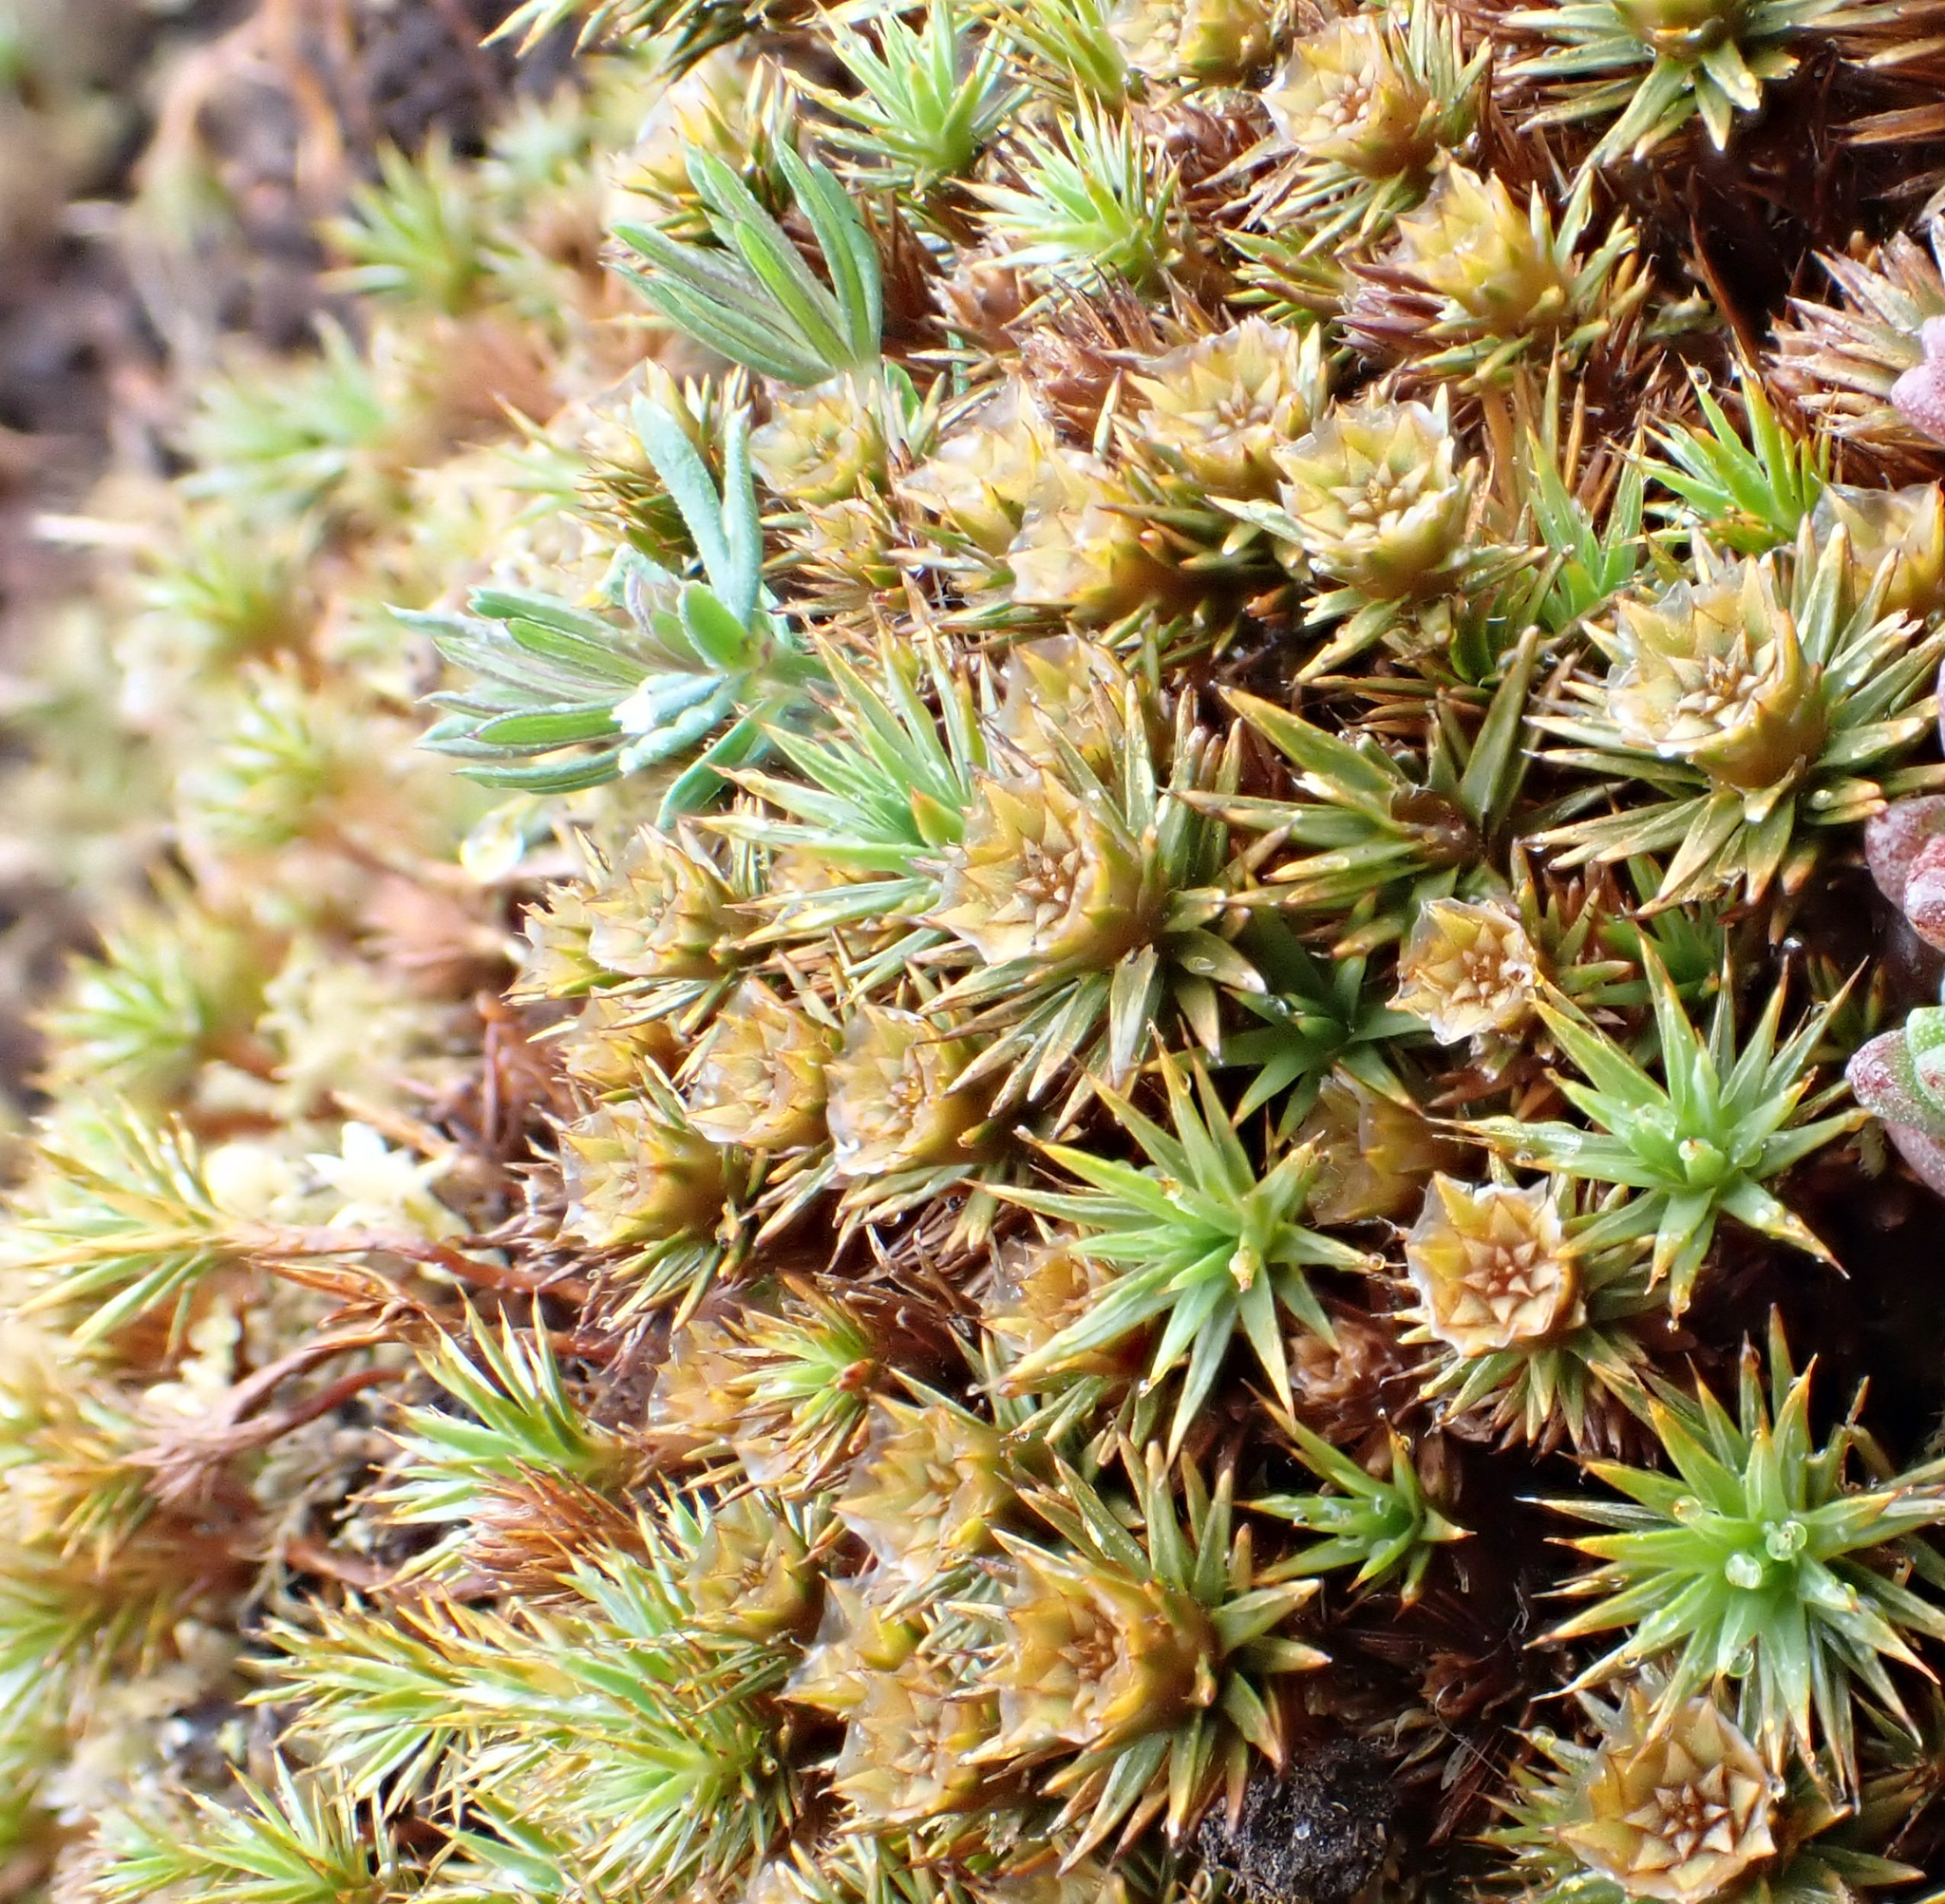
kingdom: Plantae
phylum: Bryophyta
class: Polytrichopsida
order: Polytrichales
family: Polytrichaceae
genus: Polytrichum
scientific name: Polytrichum juniperinum
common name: Juniper haircap moss
